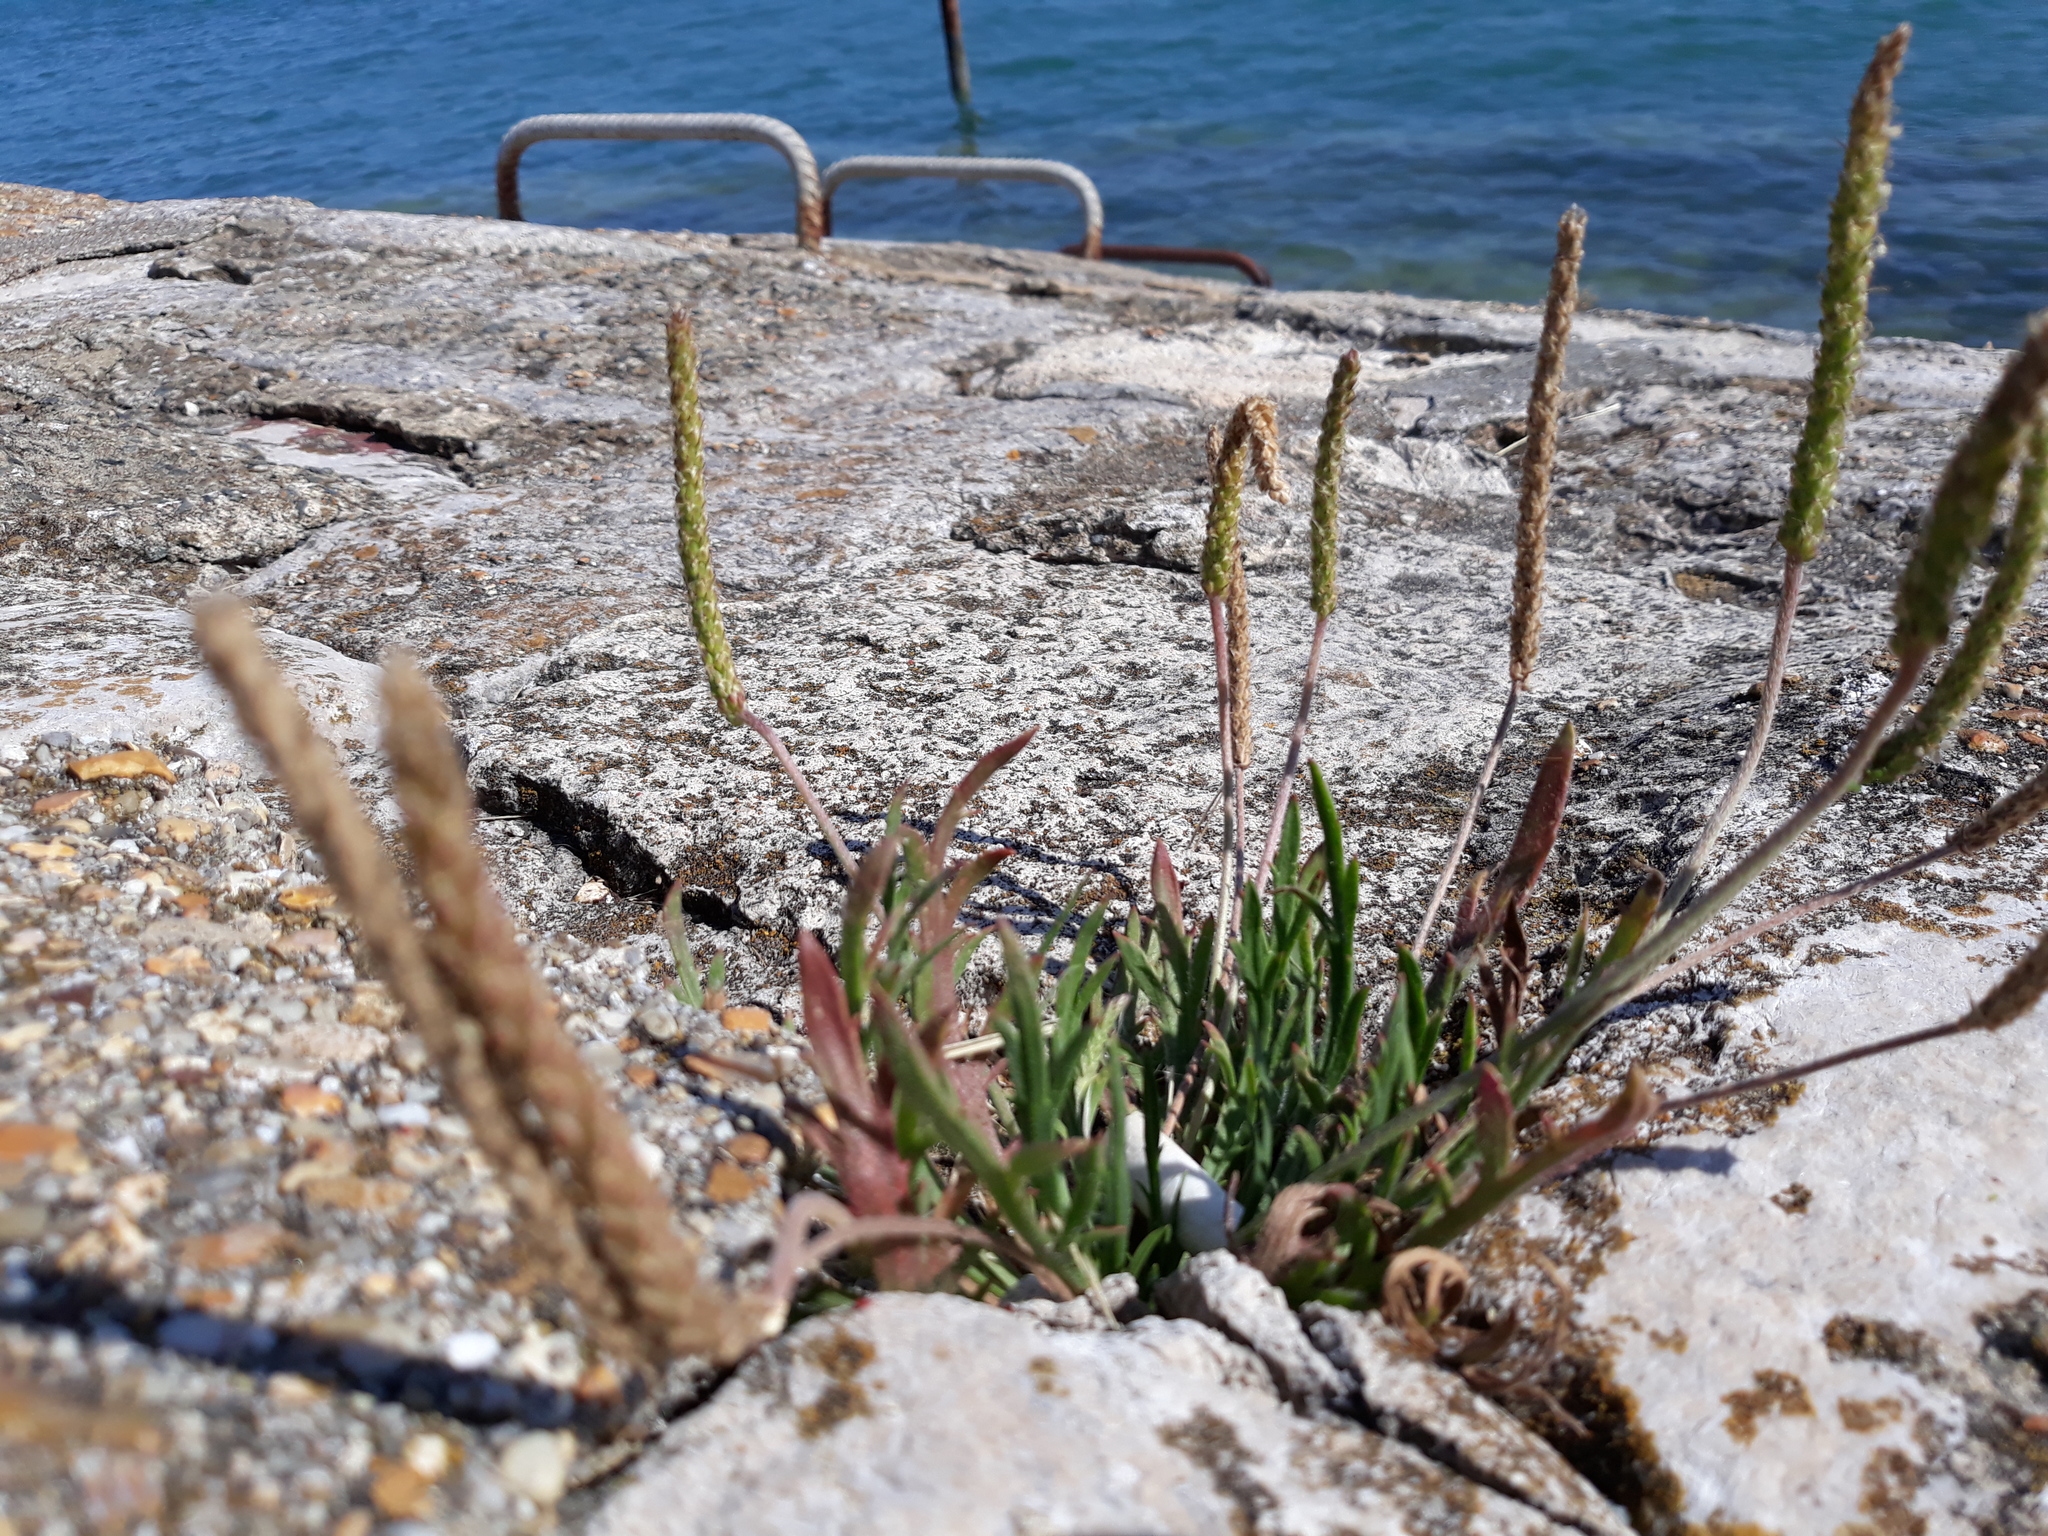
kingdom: Plantae
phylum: Tracheophyta
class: Magnoliopsida
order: Lamiales
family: Plantaginaceae
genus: Plantago
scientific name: Plantago coronopus
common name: Buck's-horn plantain
